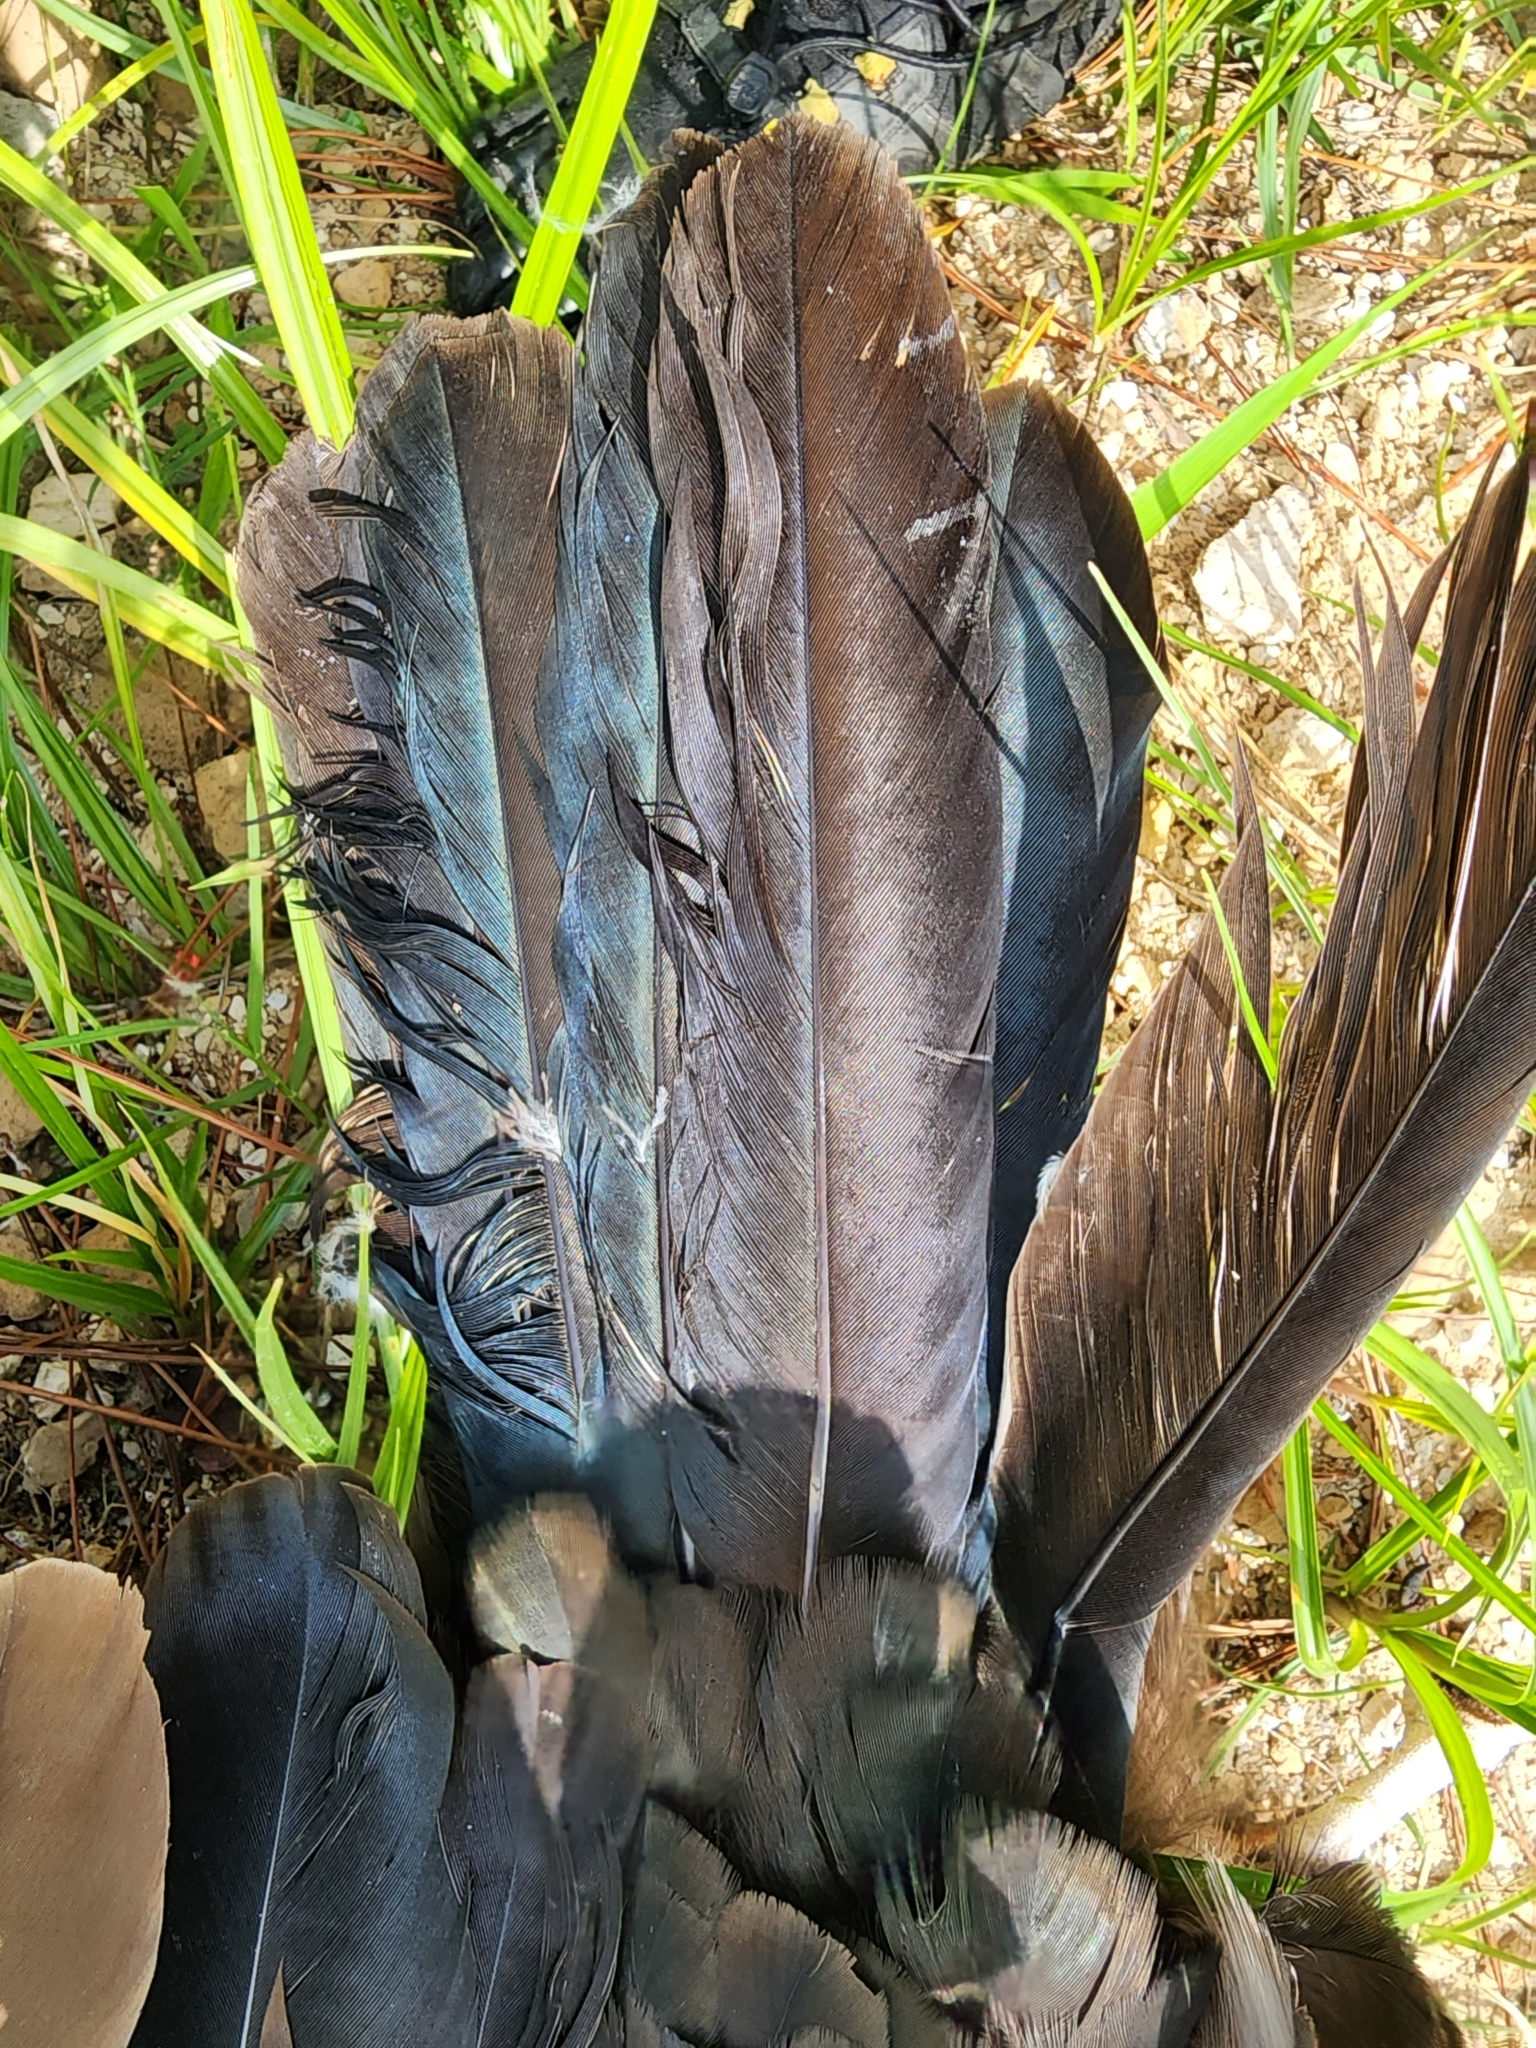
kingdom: Animalia
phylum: Chordata
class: Aves
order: Accipitriformes
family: Cathartidae
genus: Cathartes
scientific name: Cathartes aura
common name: Turkey vulture
